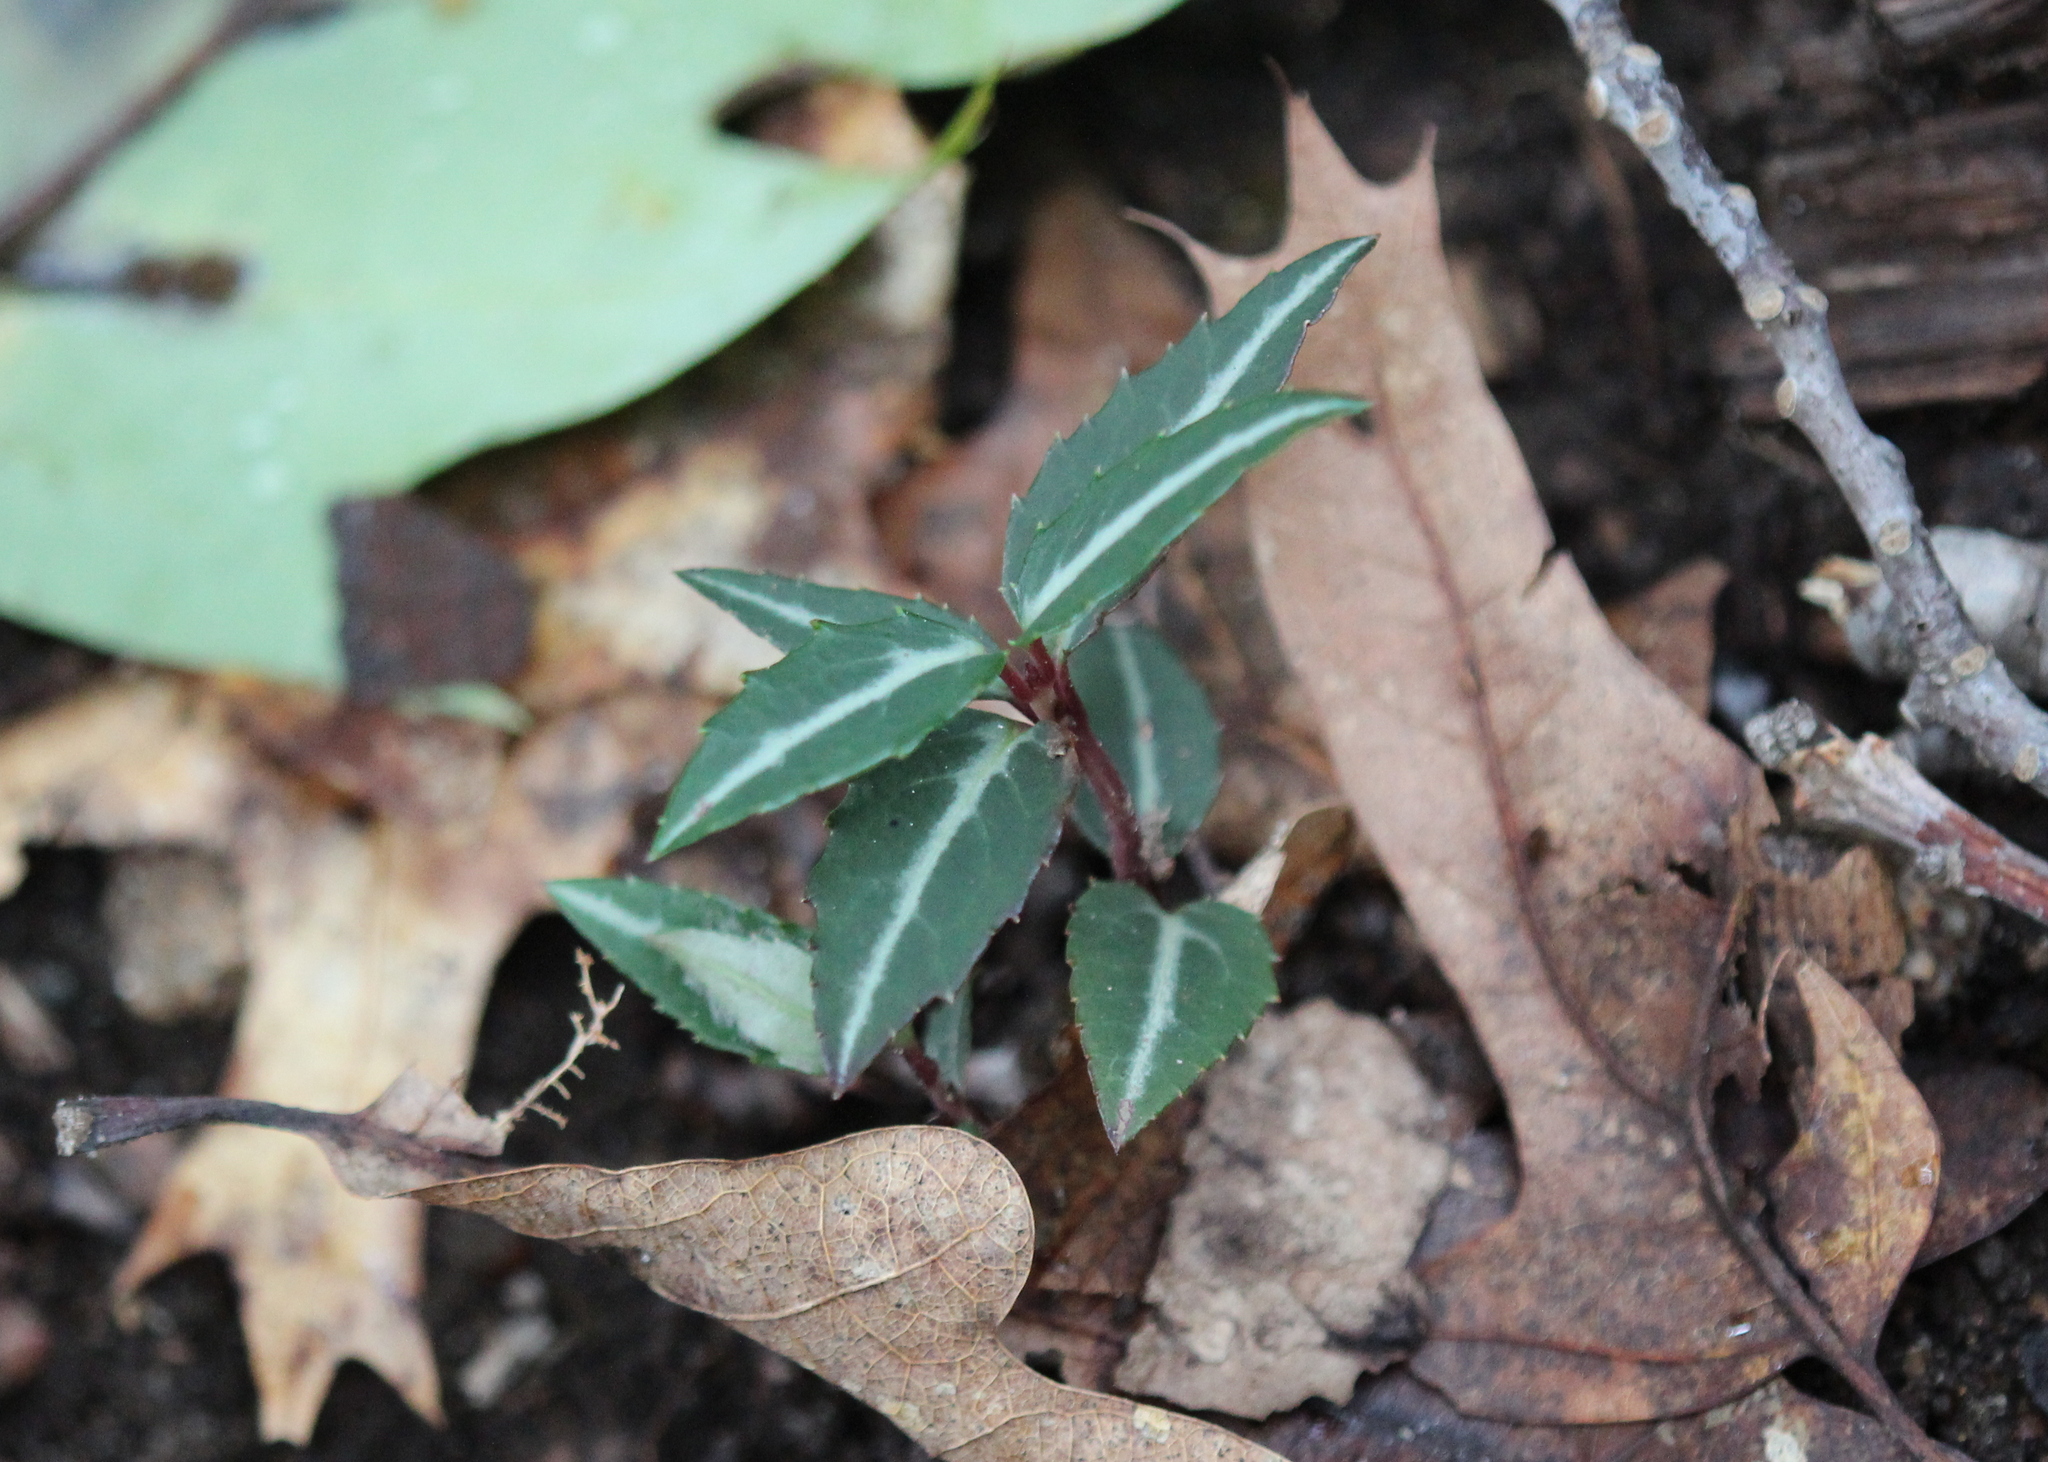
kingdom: Plantae
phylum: Tracheophyta
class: Magnoliopsida
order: Ericales
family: Ericaceae
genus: Chimaphila
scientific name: Chimaphila maculata
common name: Spotted pipsissewa
